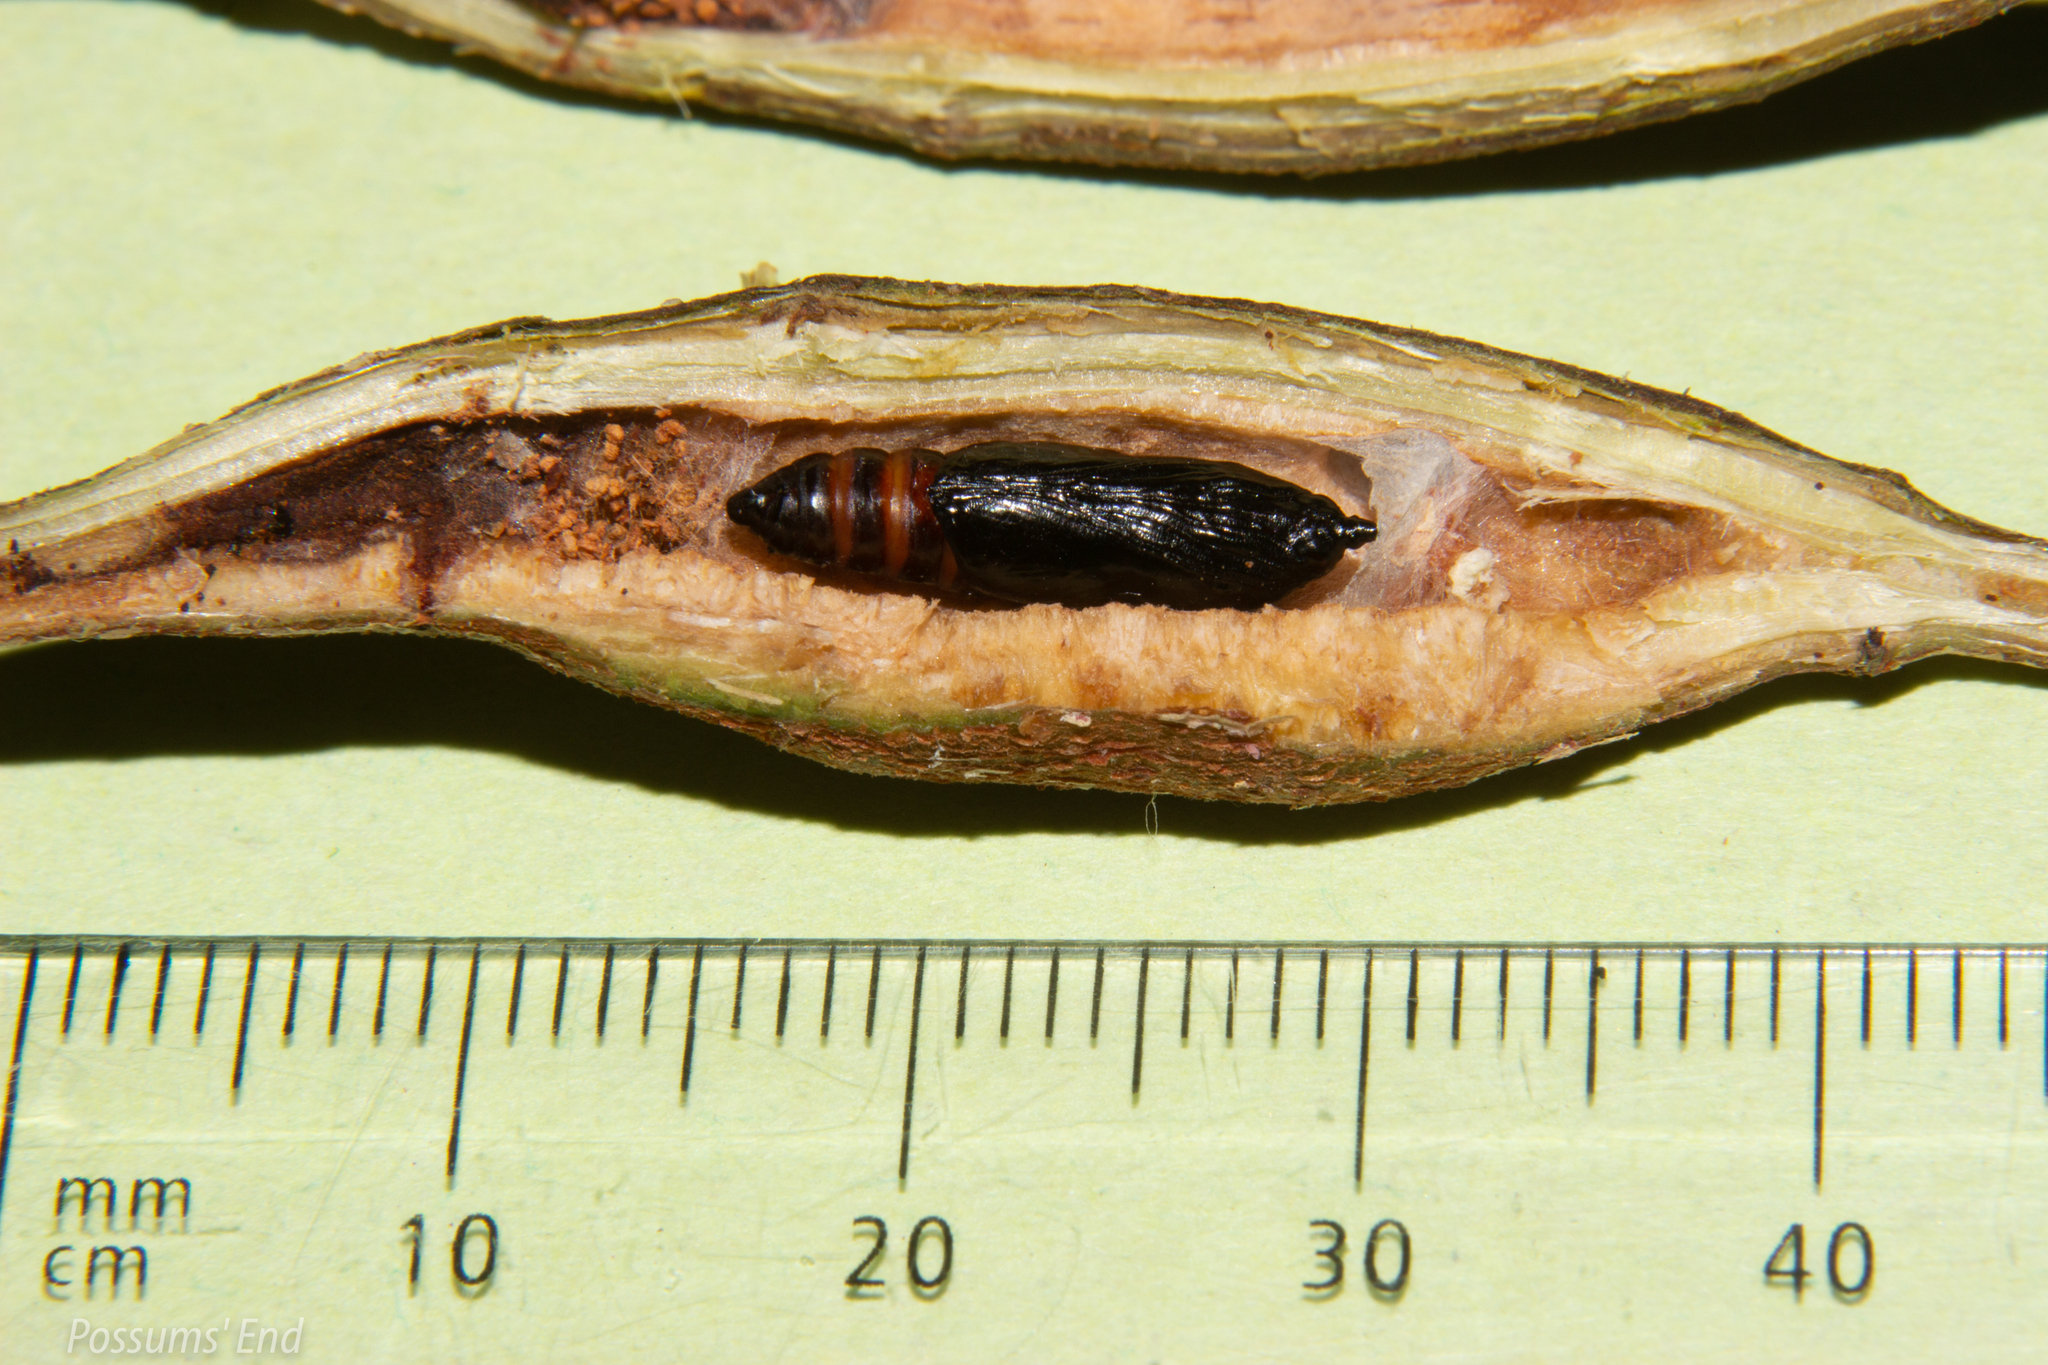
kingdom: Animalia
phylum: Arthropoda
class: Insecta
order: Lepidoptera
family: Thyrididae
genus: Morova
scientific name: Morova subfasciata
